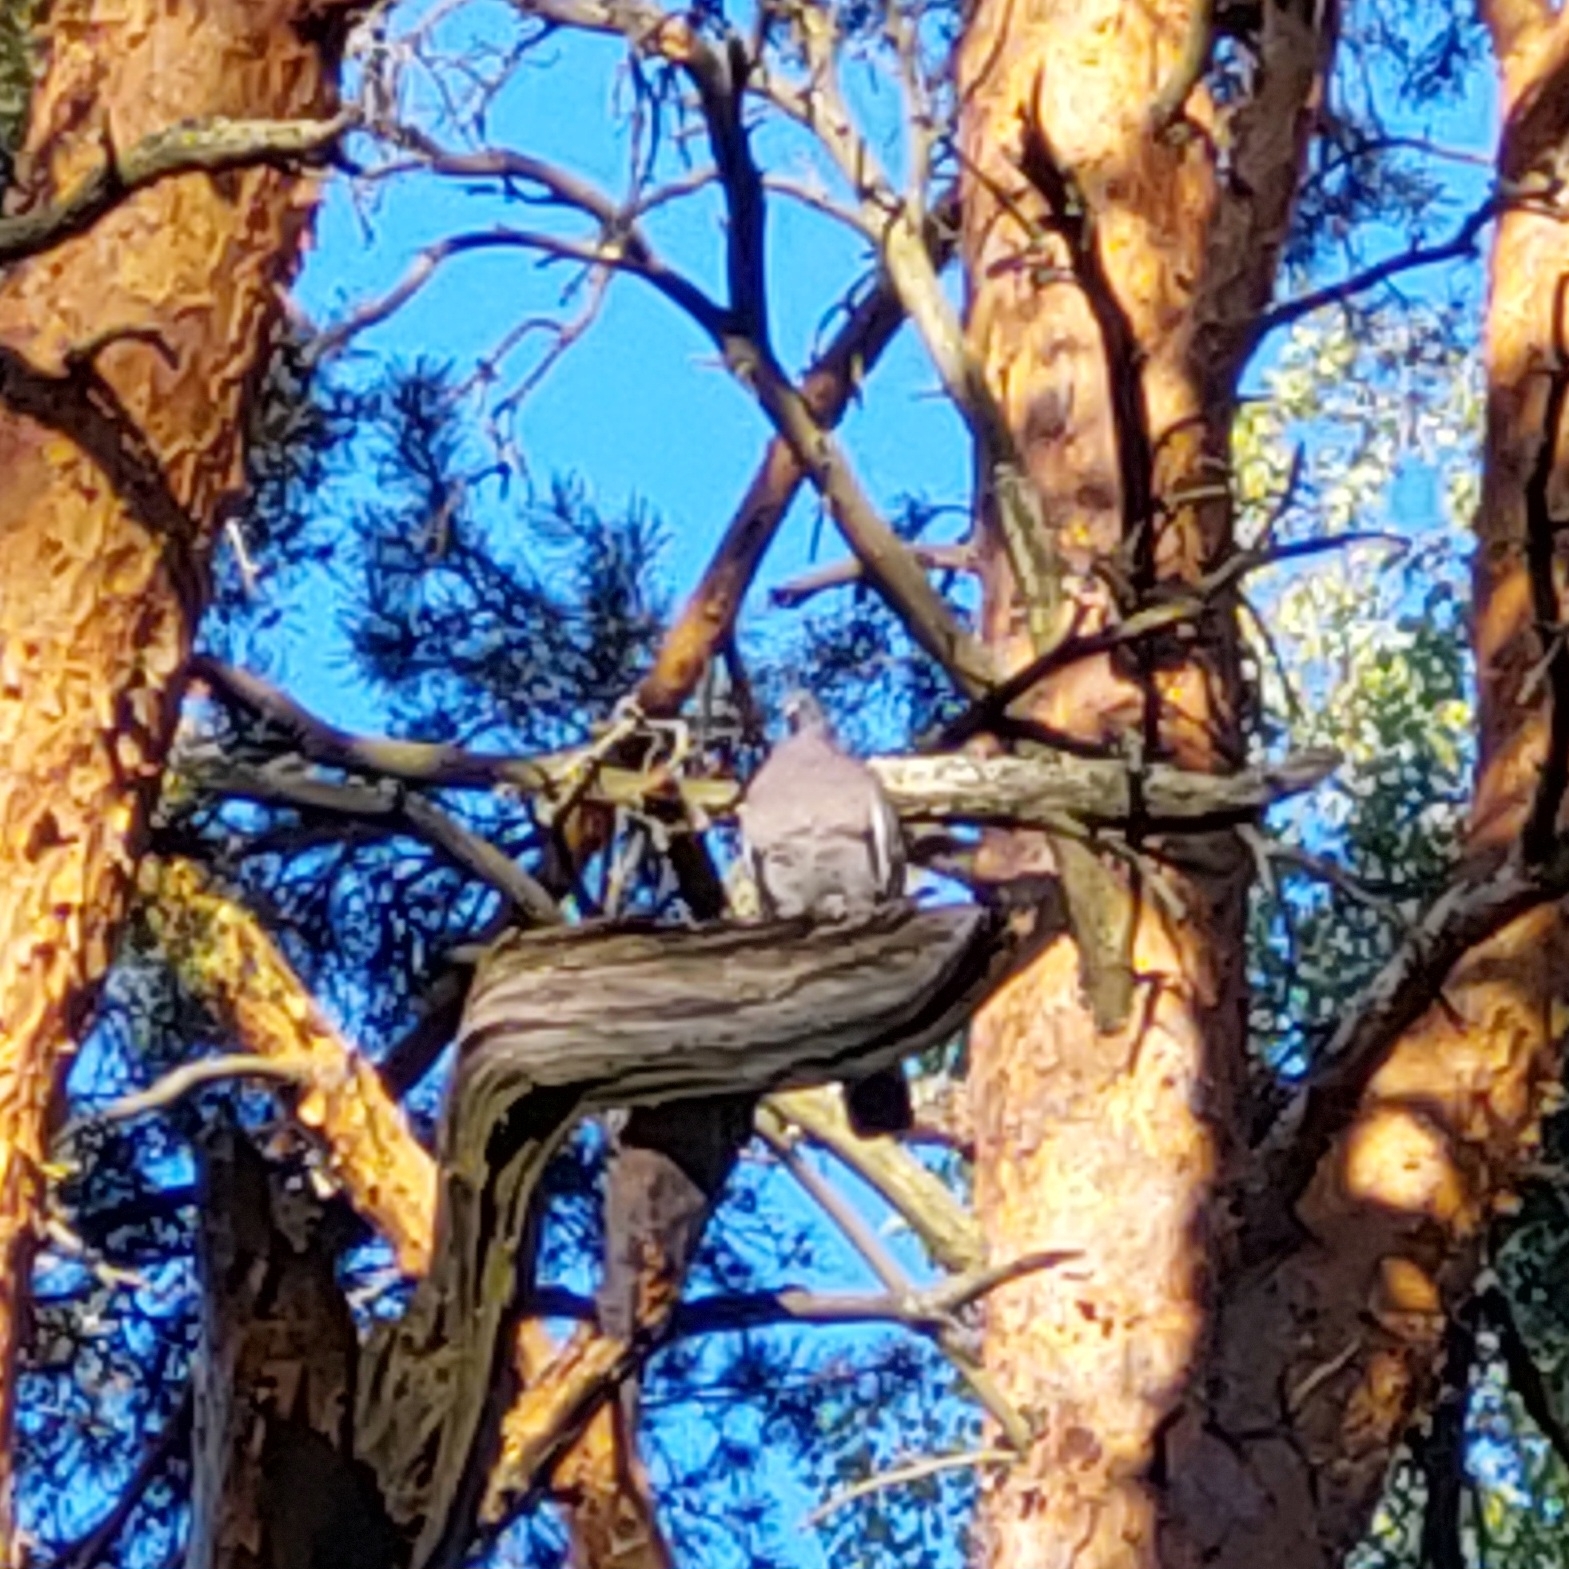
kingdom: Animalia
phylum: Chordata
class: Aves
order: Columbiformes
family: Columbidae
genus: Columba
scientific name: Columba palumbus
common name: Common wood pigeon
